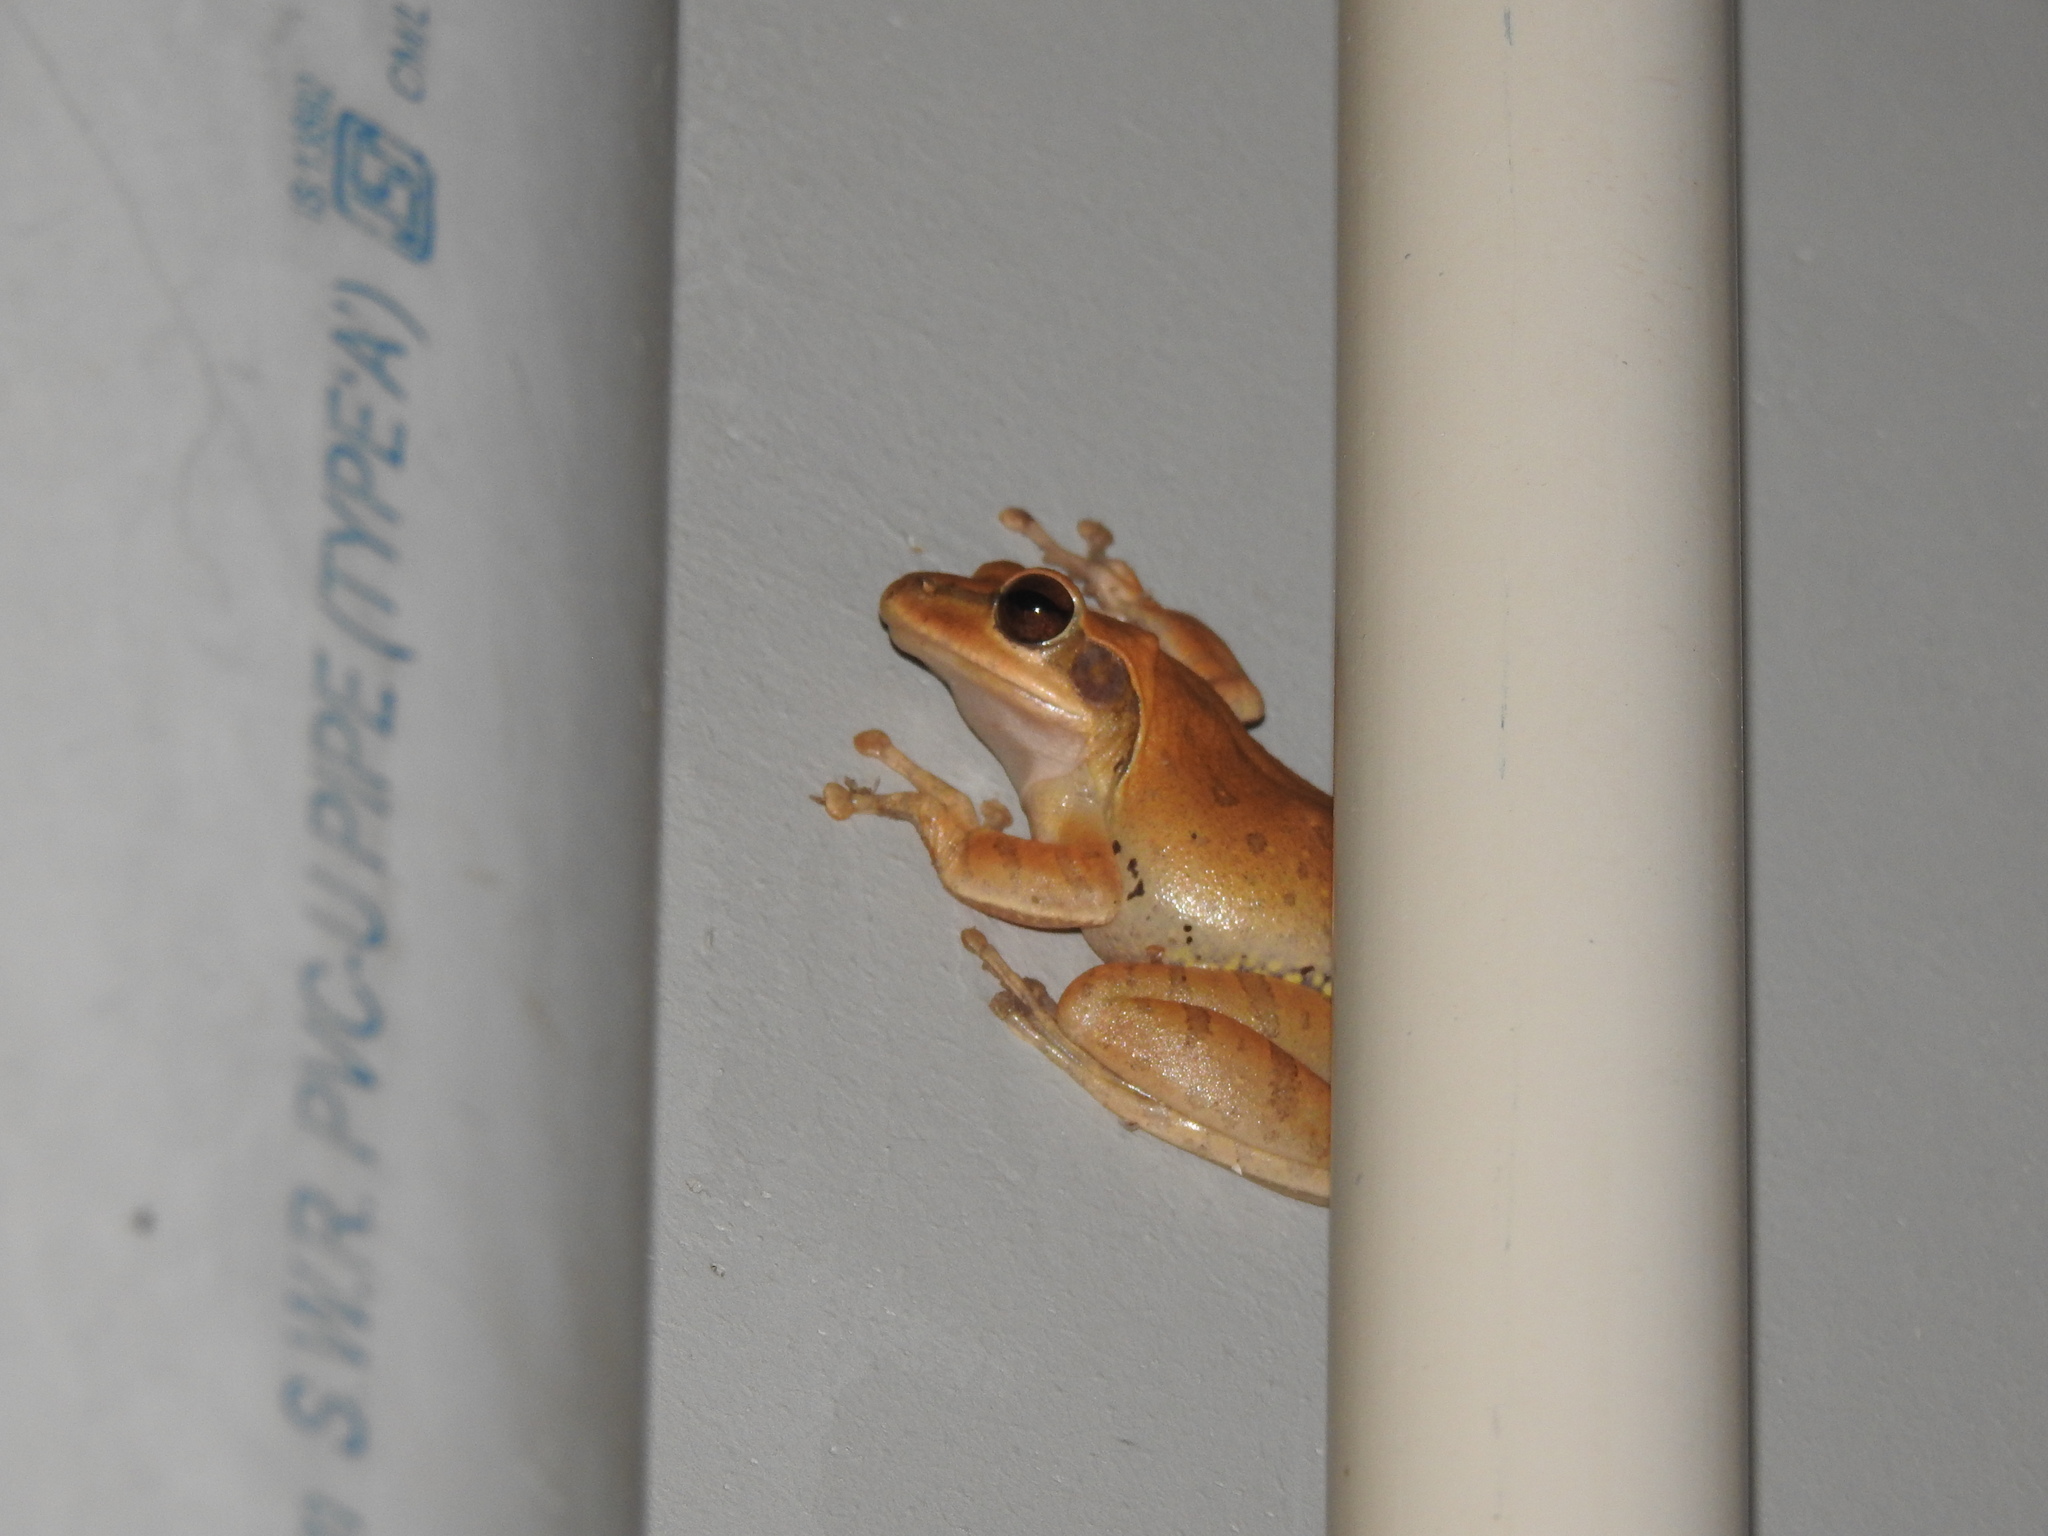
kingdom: Animalia
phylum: Chordata
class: Amphibia
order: Anura
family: Rhacophoridae
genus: Polypedates
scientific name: Polypedates maculatus
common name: Himalayan tree frog
